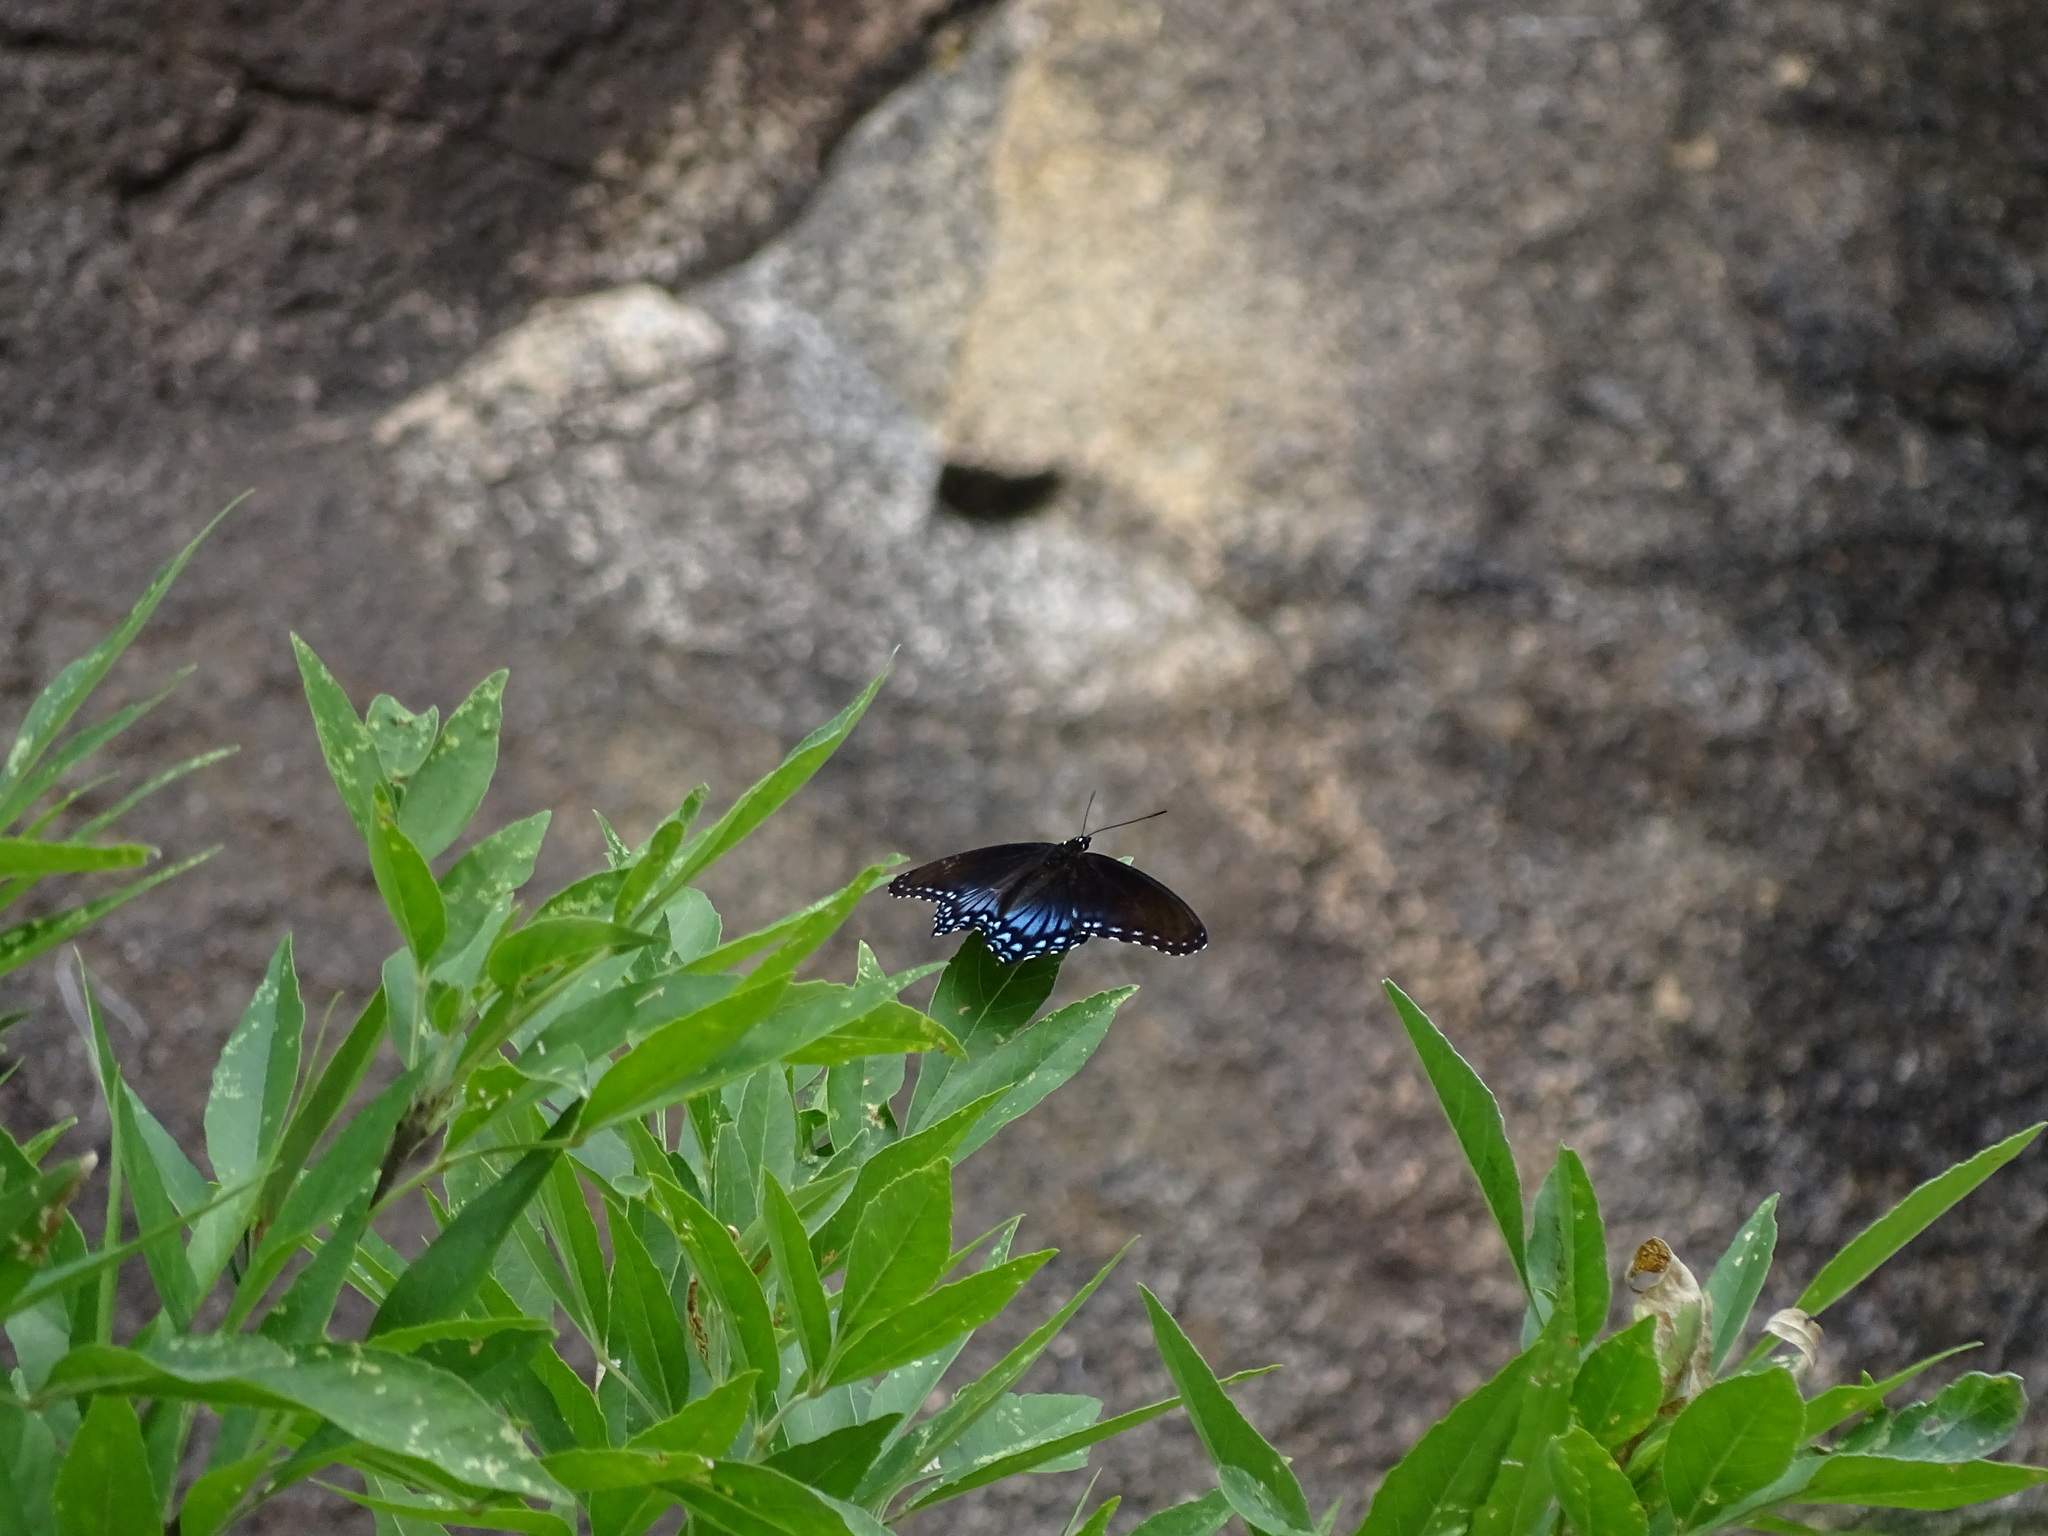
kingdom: Animalia
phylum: Arthropoda
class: Insecta
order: Lepidoptera
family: Nymphalidae
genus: Limenitis
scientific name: Limenitis arthemis
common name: Red-spotted admiral
